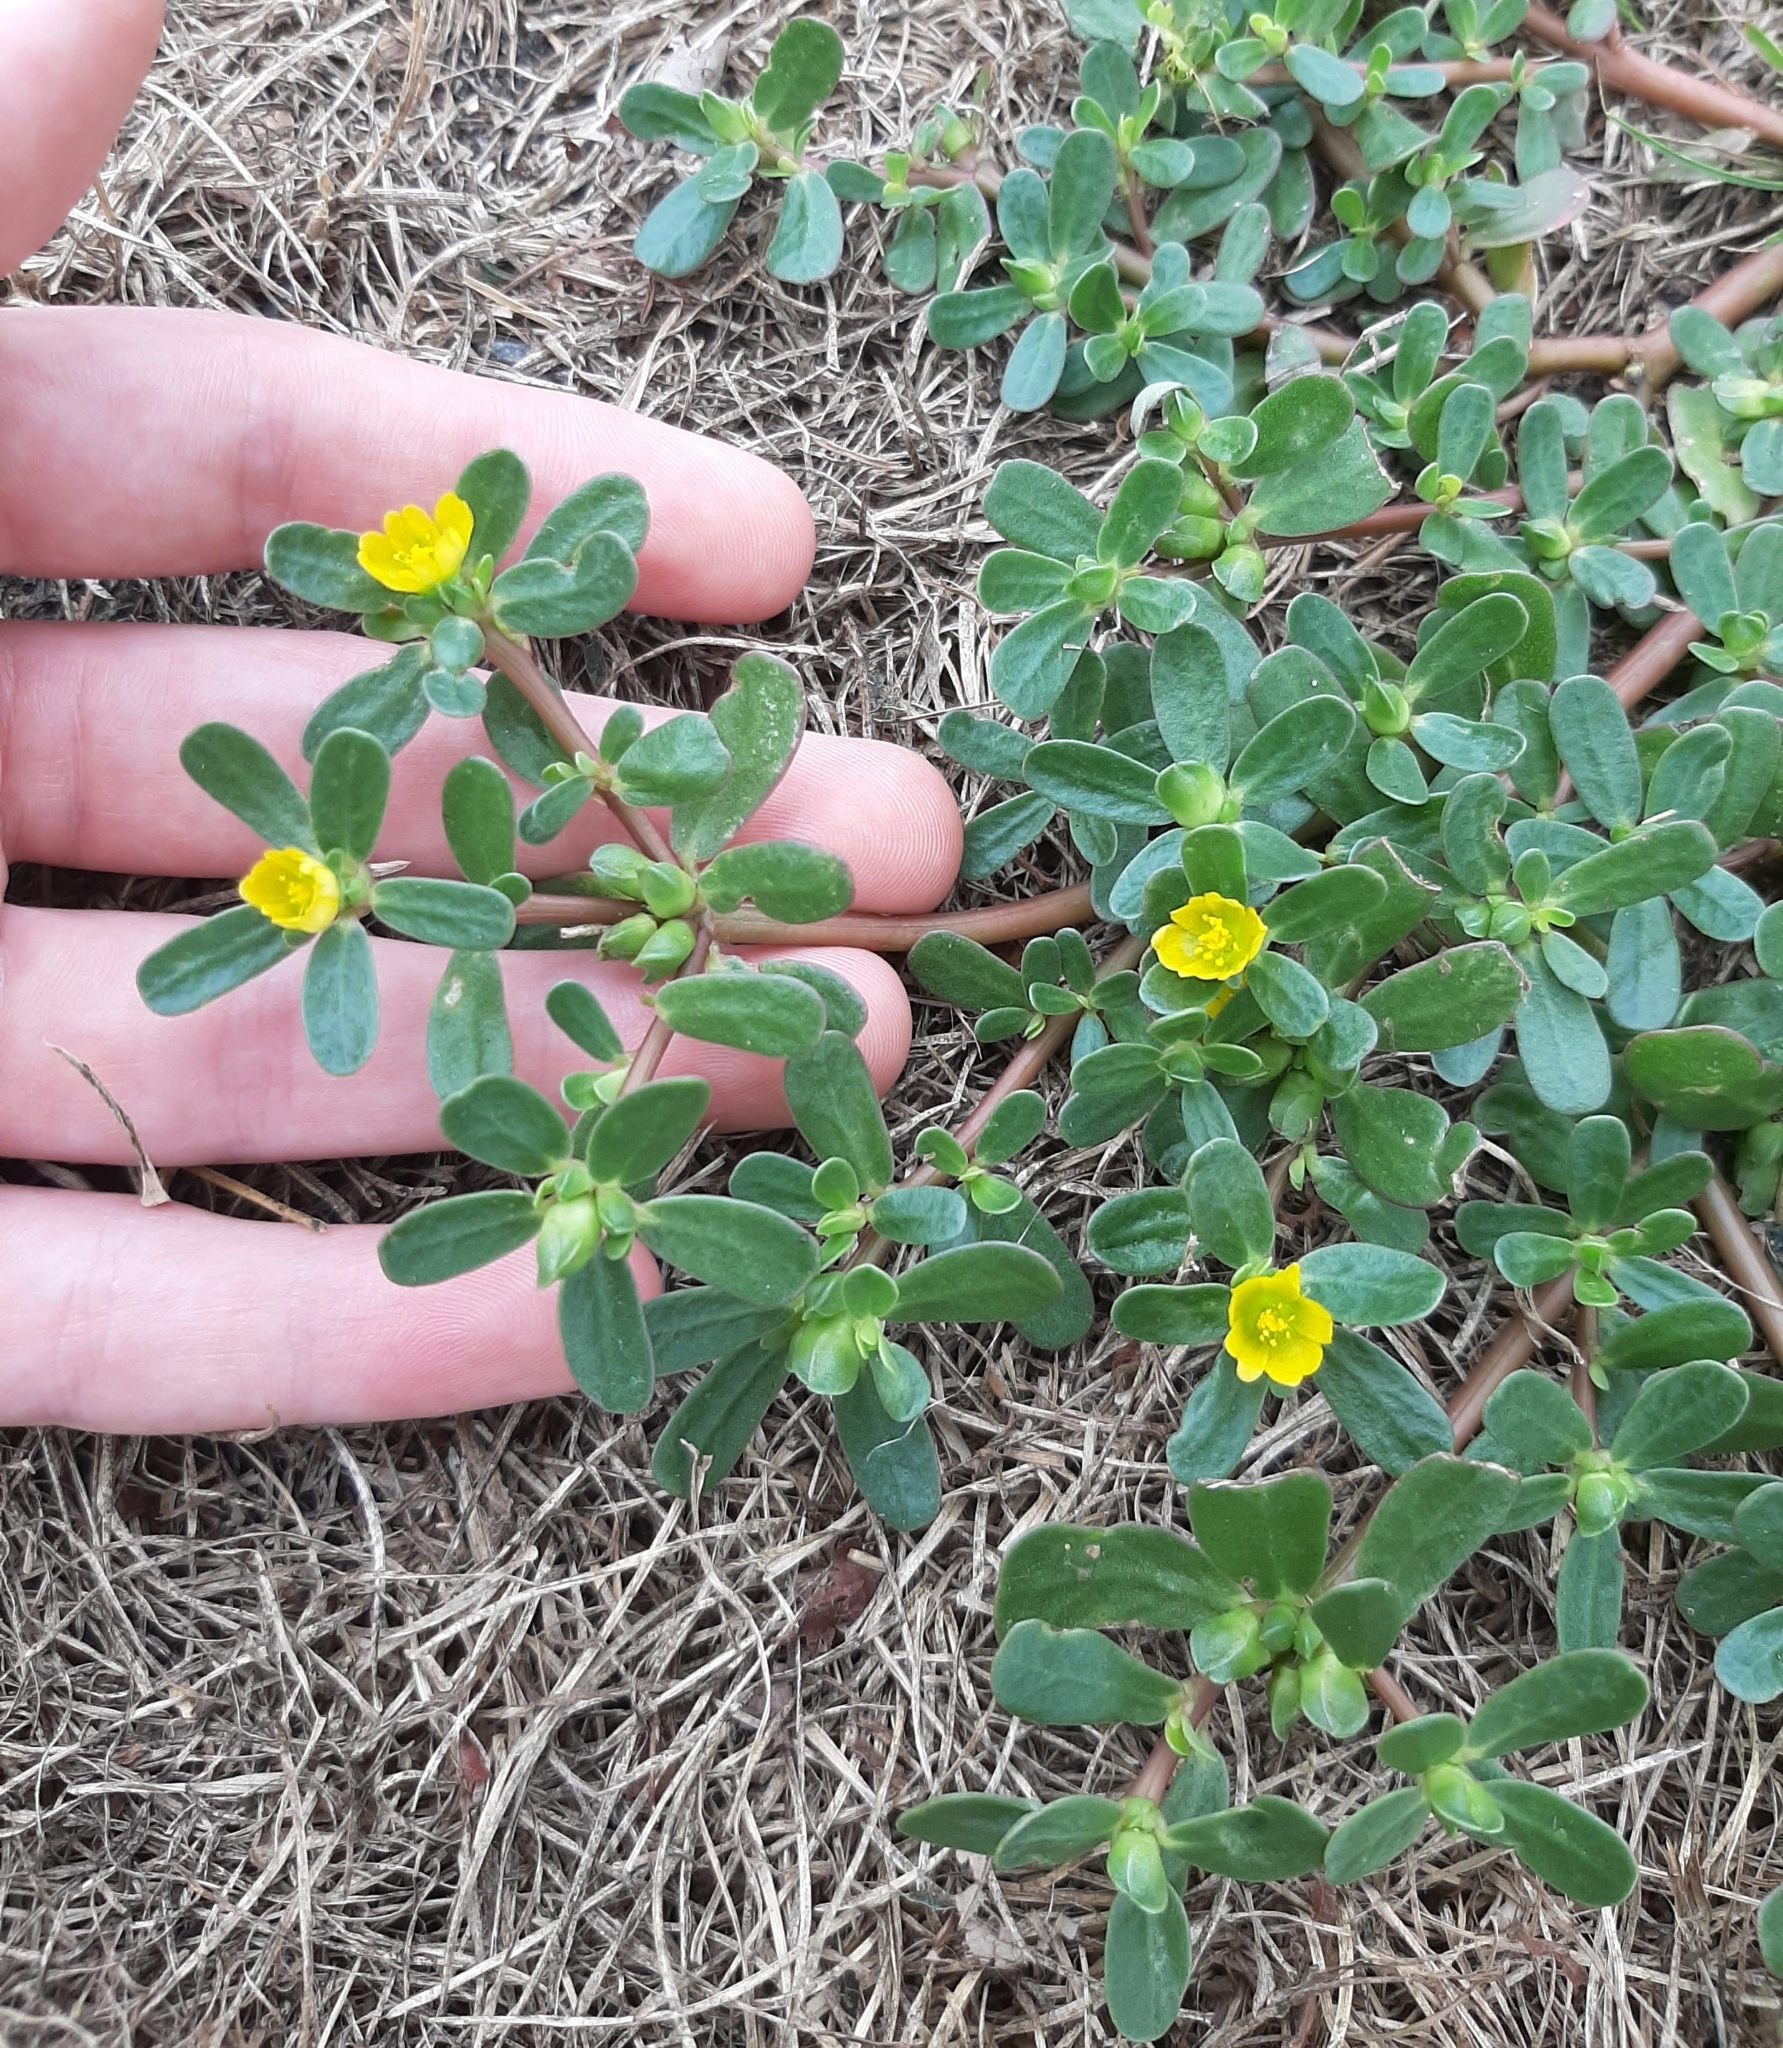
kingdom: Plantae
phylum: Tracheophyta
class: Magnoliopsida
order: Caryophyllales
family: Portulacaceae
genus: Portulaca
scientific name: Portulaca oleracea
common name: Common purslane
